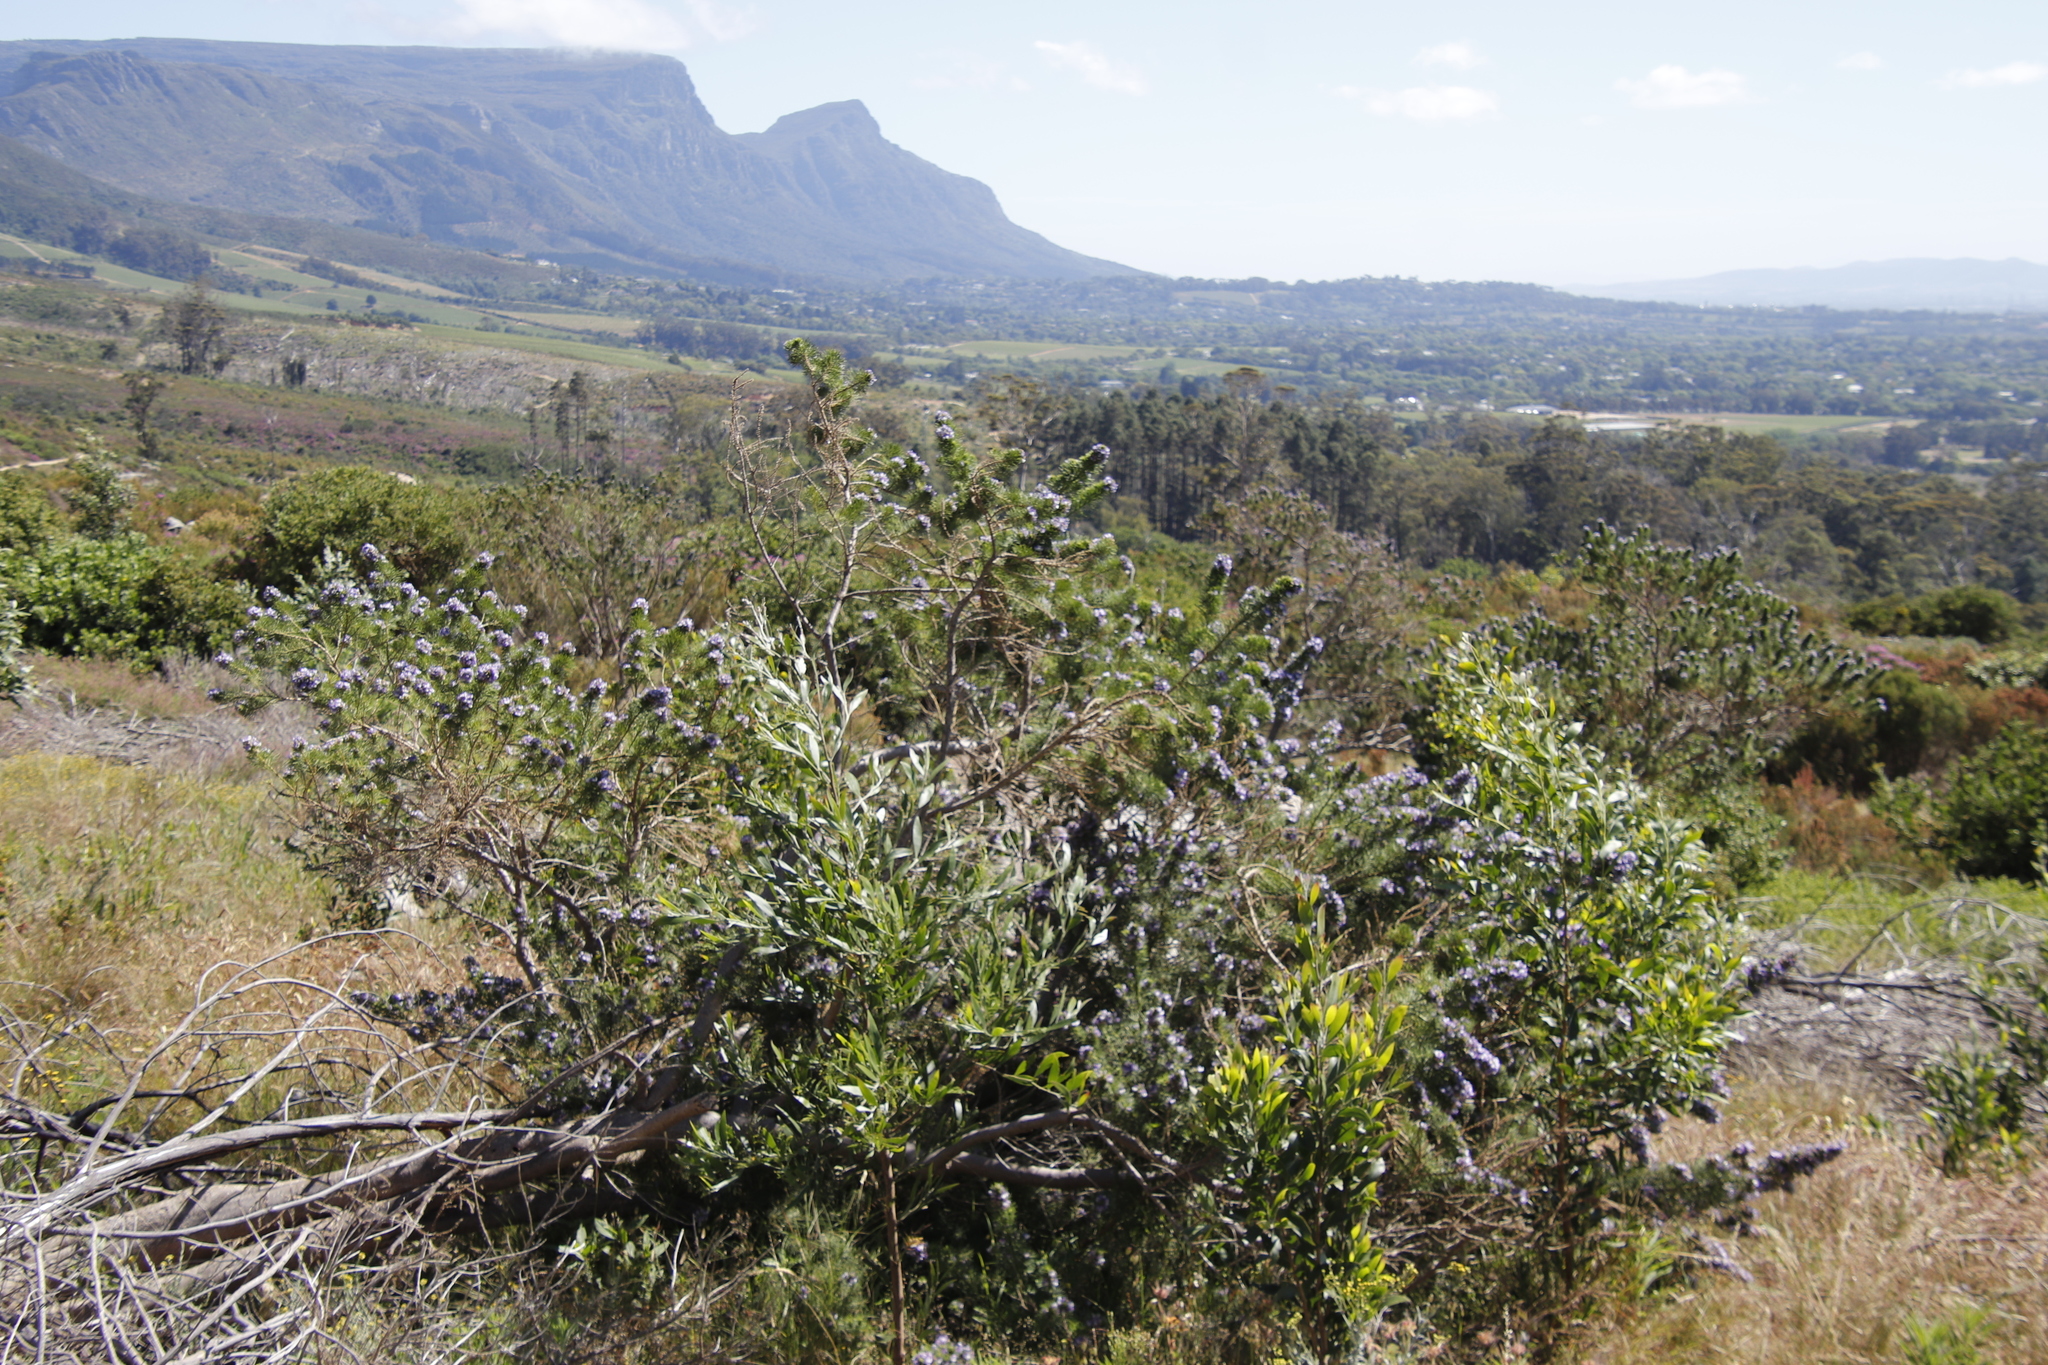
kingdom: Plantae
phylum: Tracheophyta
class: Magnoliopsida
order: Fabales
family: Fabaceae
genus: Psoralea
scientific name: Psoralea pinnata
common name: African scurfpea
